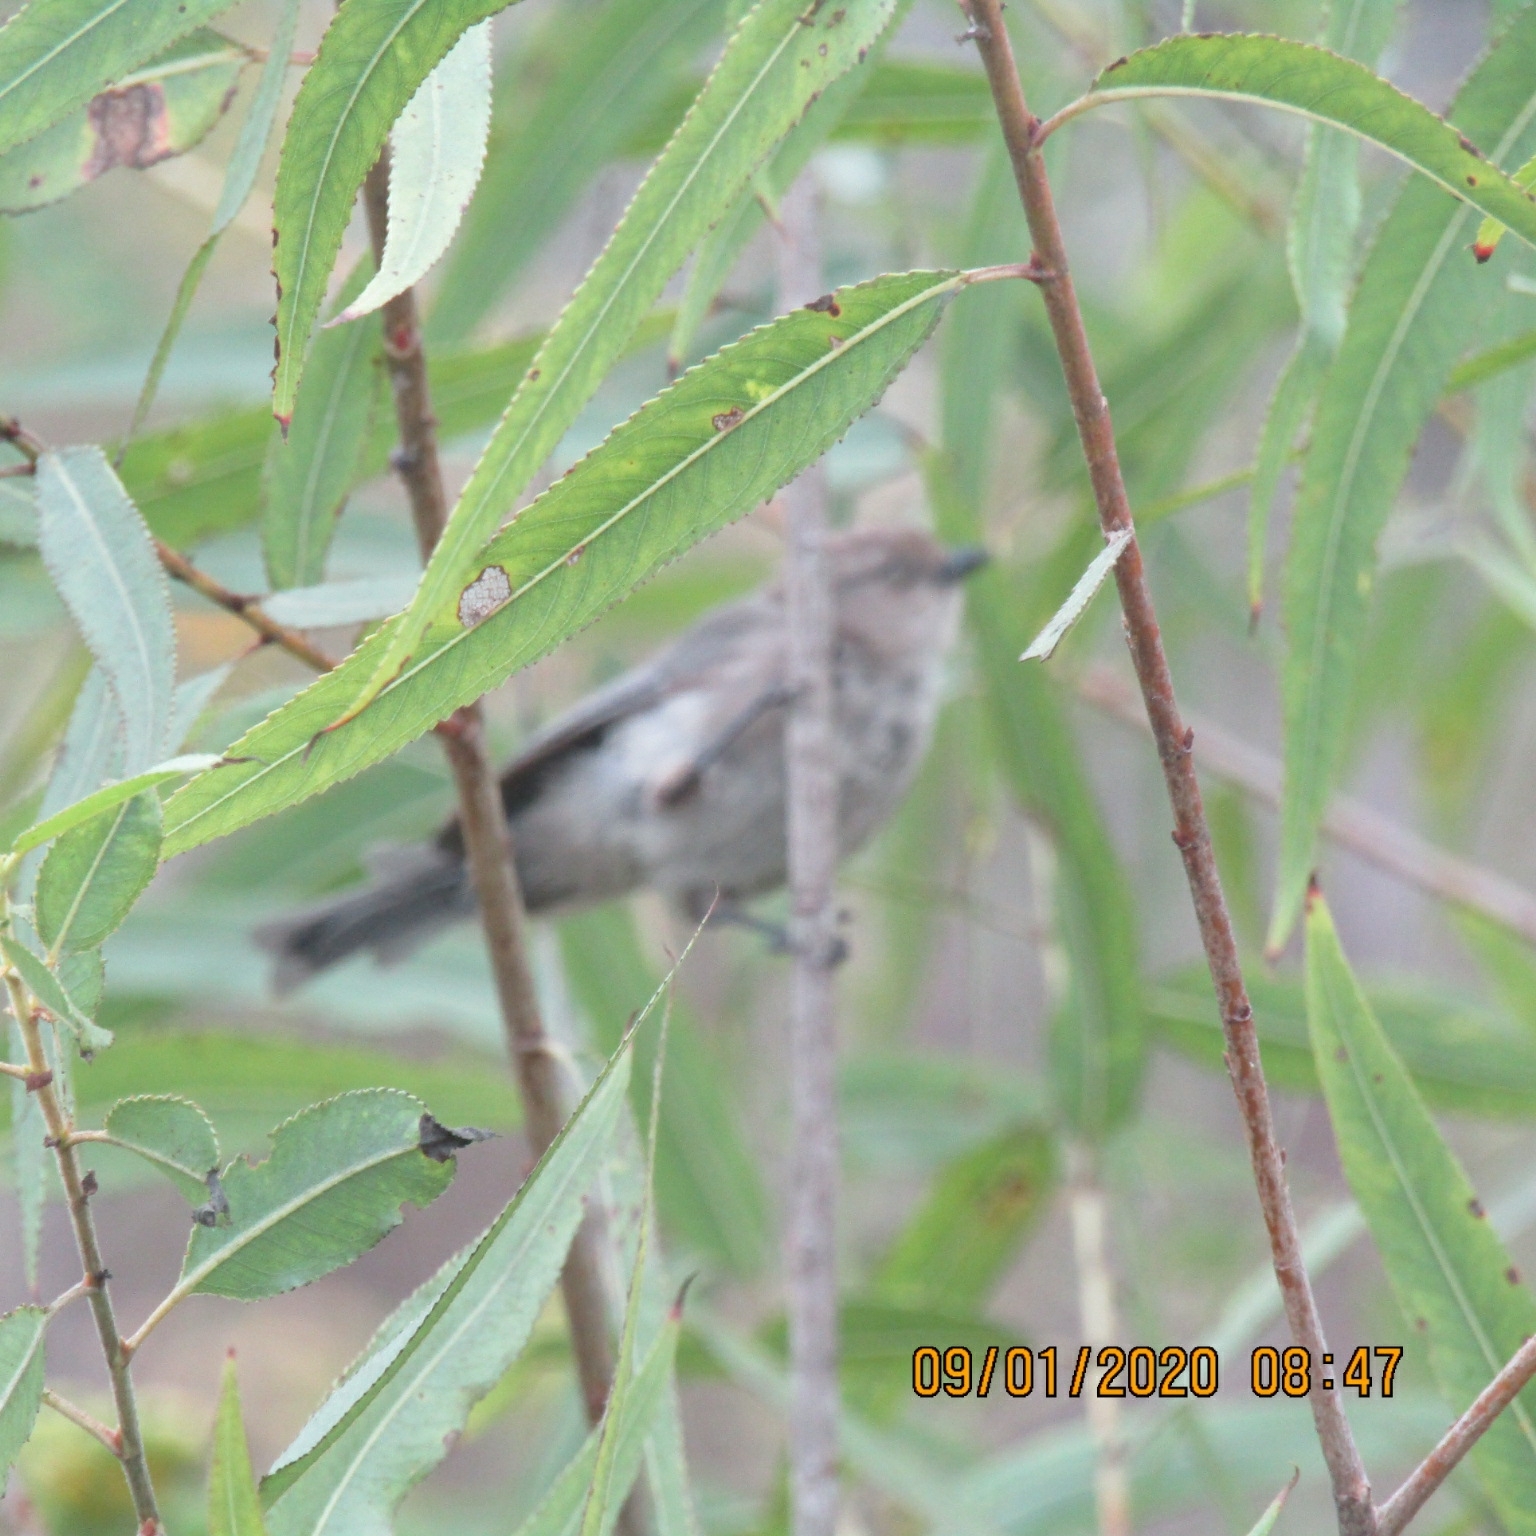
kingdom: Animalia
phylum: Chordata
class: Aves
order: Passeriformes
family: Aegithalidae
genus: Psaltriparus
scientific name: Psaltriparus minimus
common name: American bushtit
